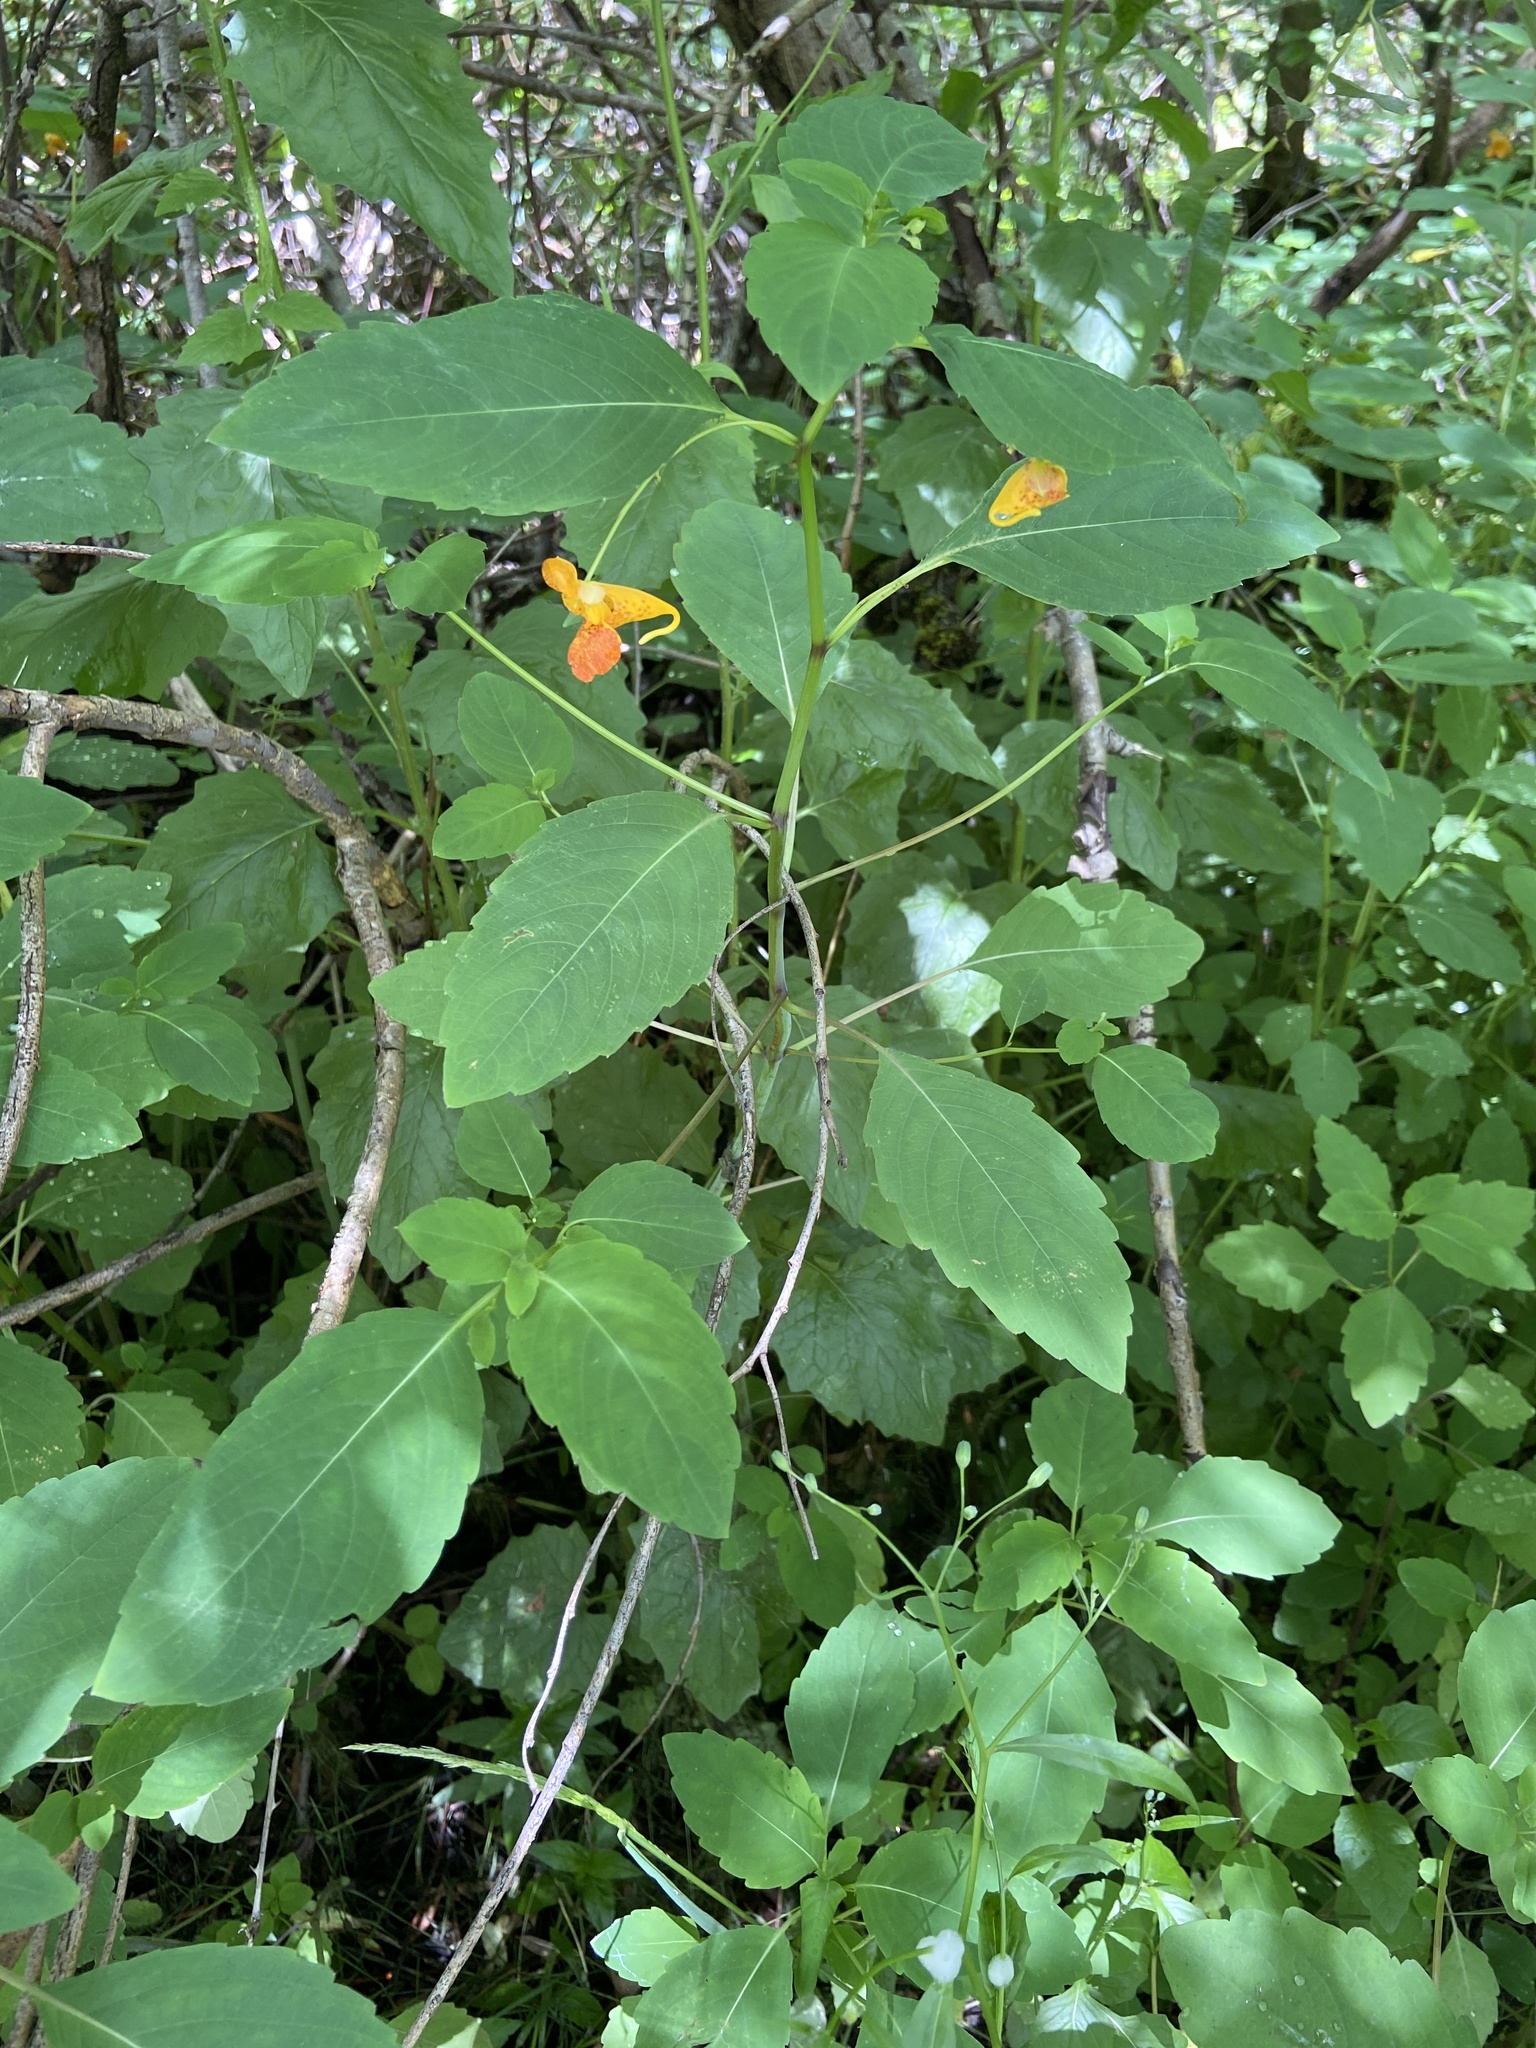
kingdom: Plantae
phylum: Tracheophyta
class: Magnoliopsida
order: Ericales
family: Balsaminaceae
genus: Impatiens
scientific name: Impatiens capensis
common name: Orange balsam
